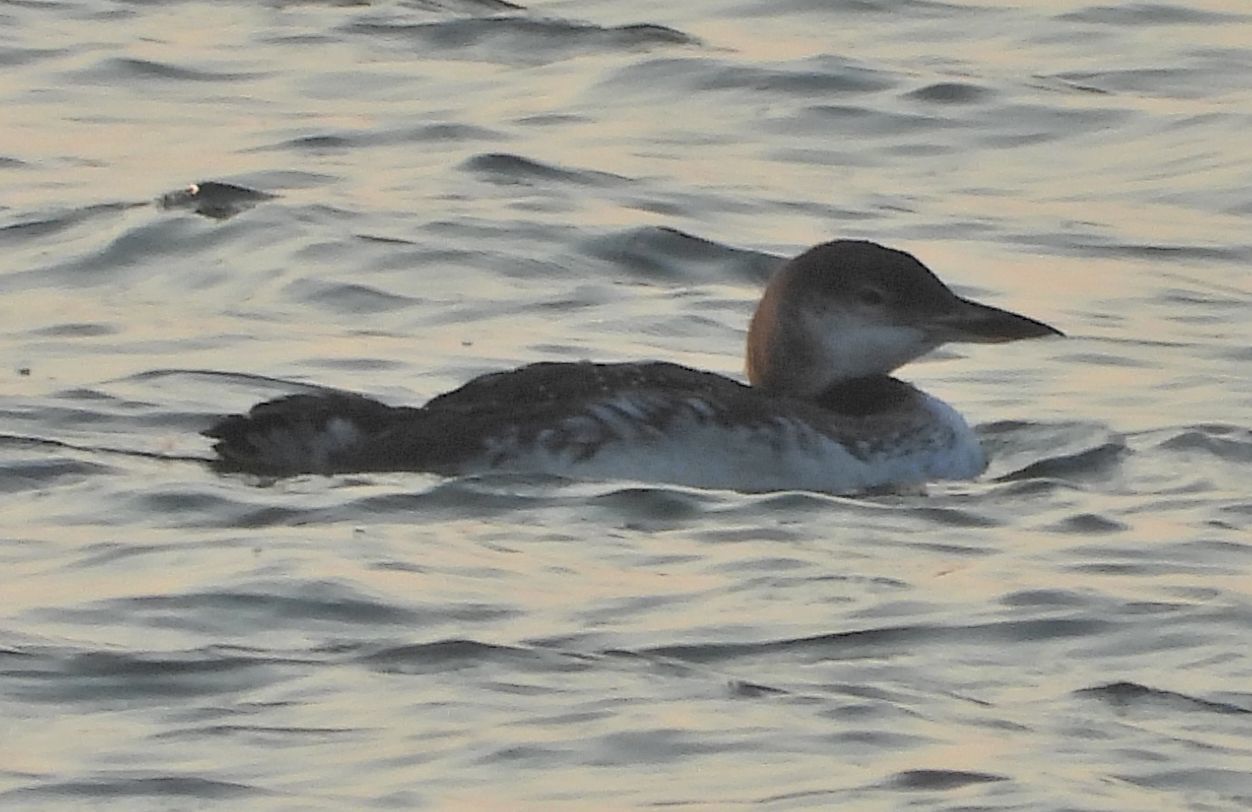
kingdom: Animalia
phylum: Chordata
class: Aves
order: Gaviiformes
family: Gaviidae
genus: Gavia
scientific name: Gavia immer
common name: Common loon
